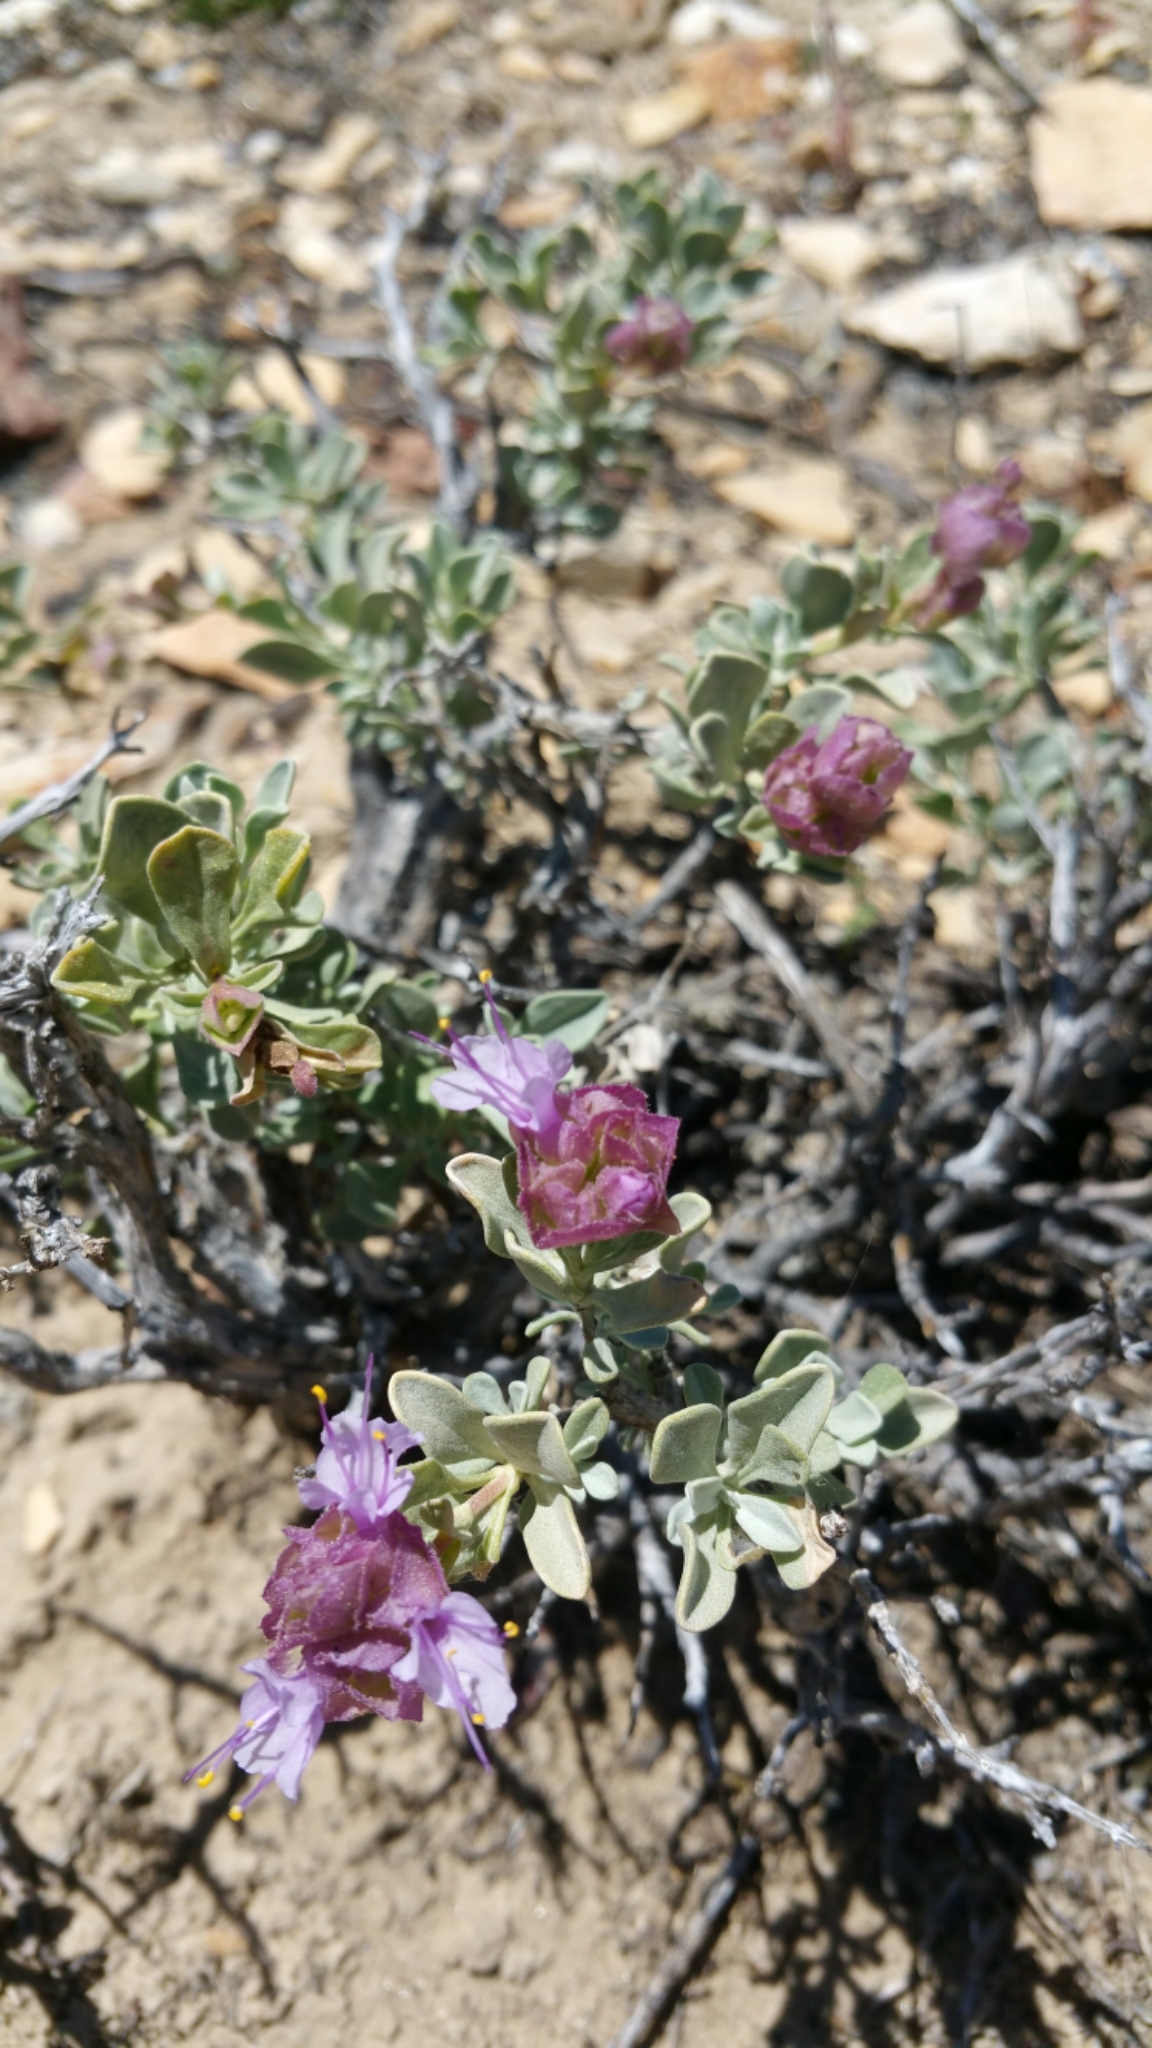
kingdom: Plantae
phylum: Tracheophyta
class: Magnoliopsida
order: Lamiales
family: Lamiaceae
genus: Salvia
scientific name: Salvia dorrii
